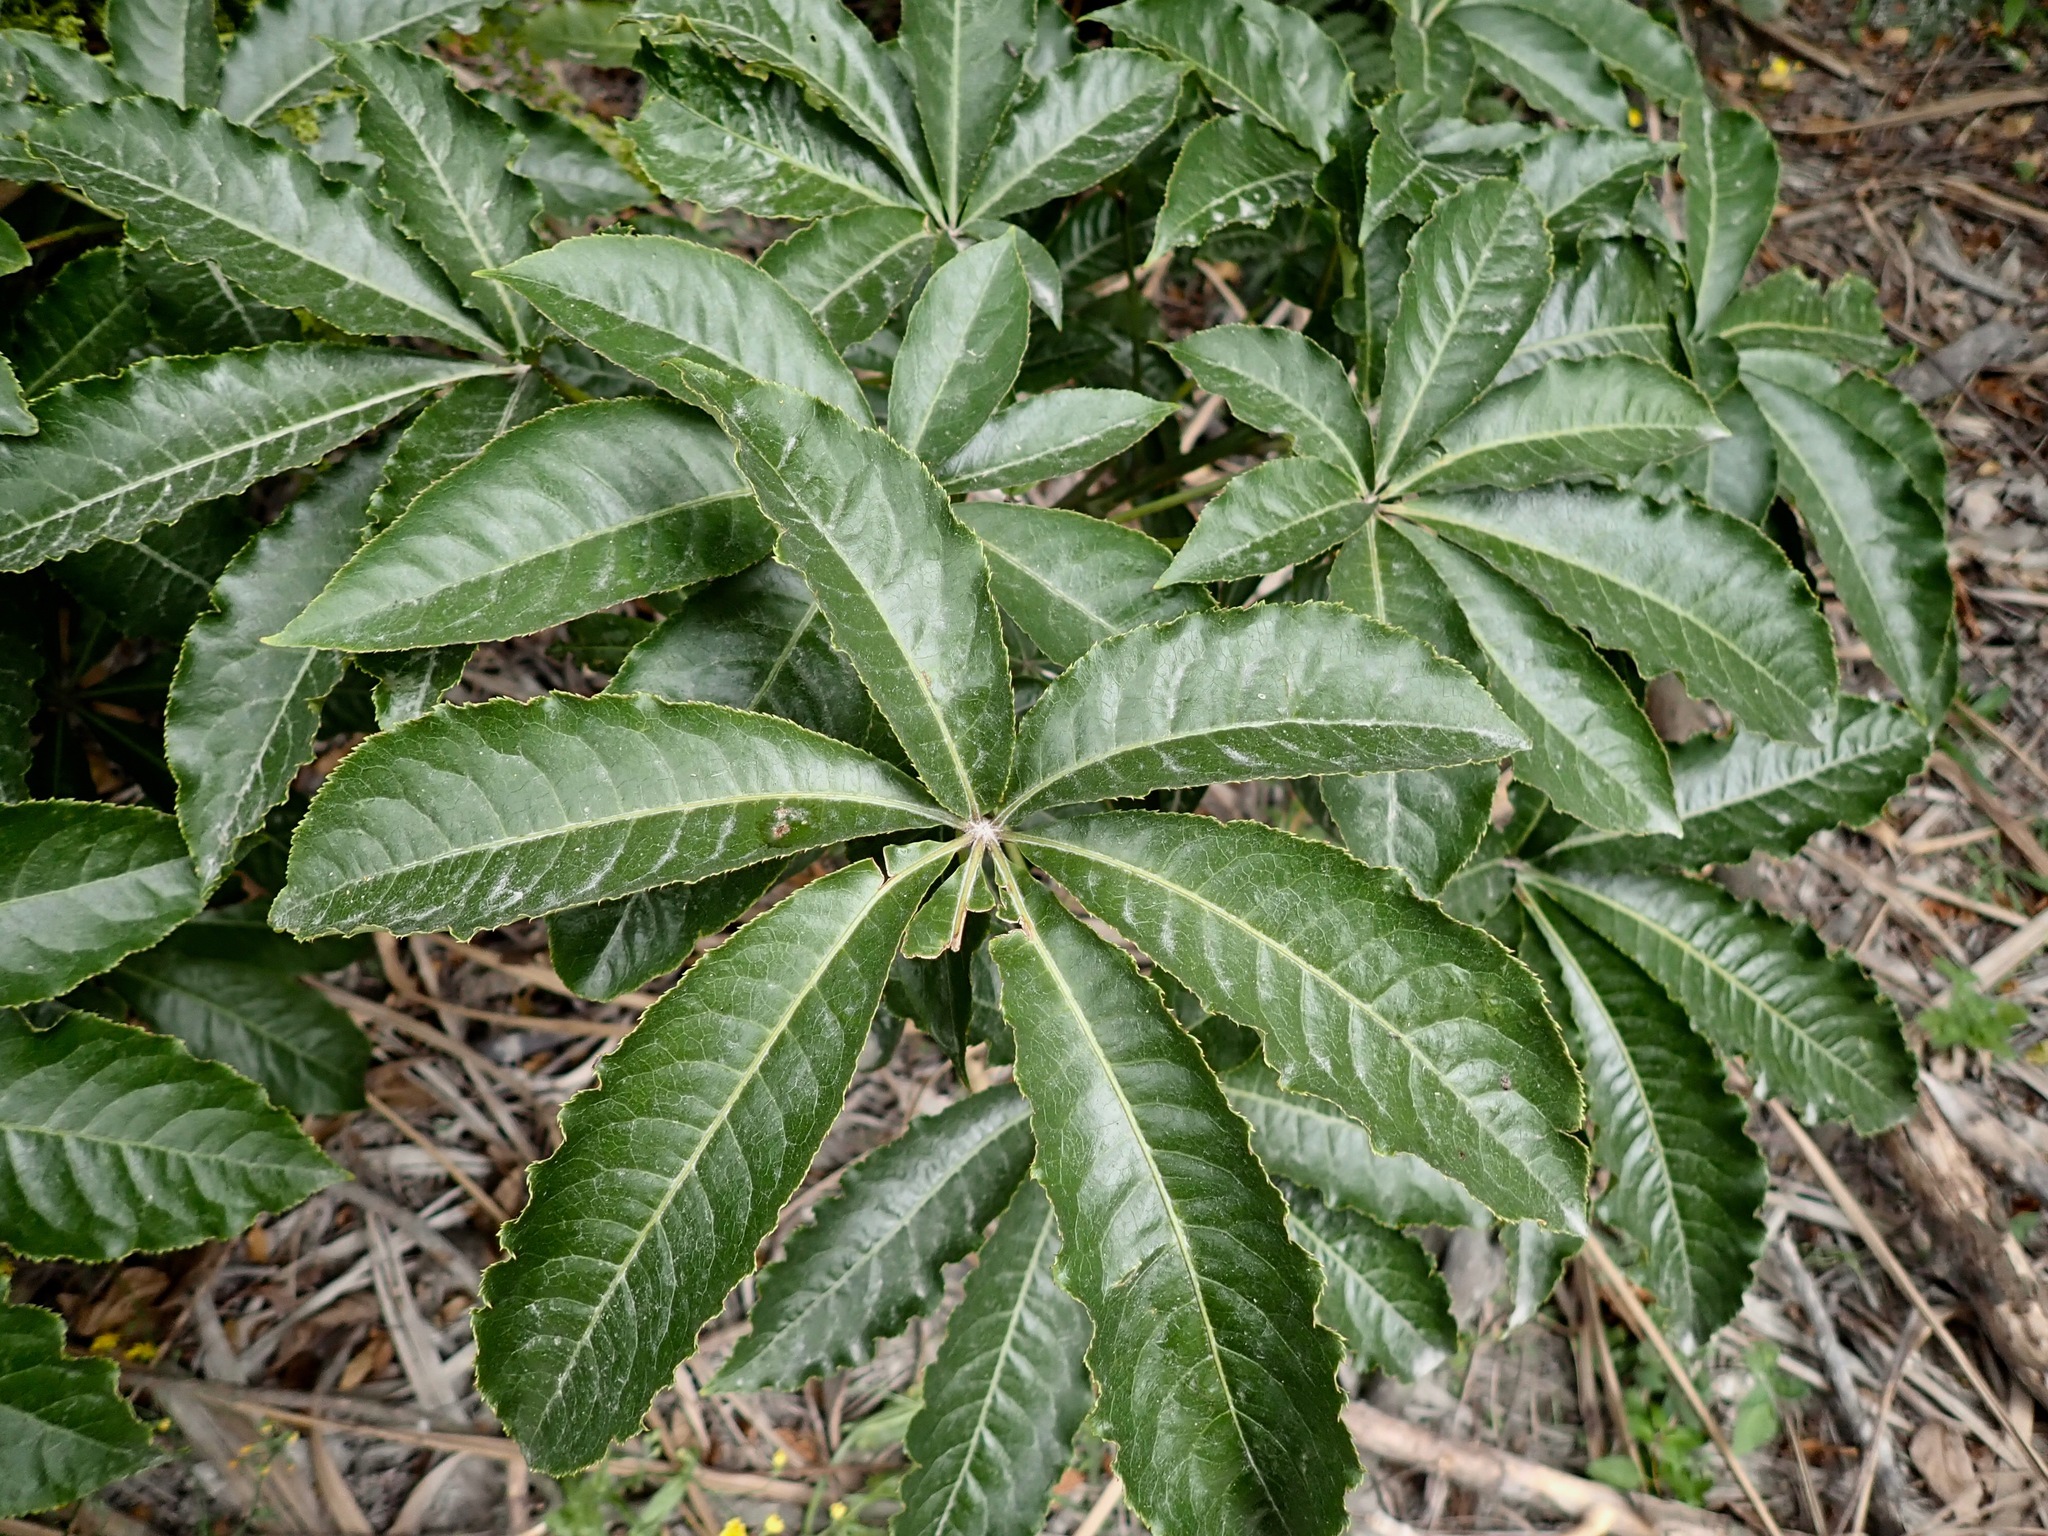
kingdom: Plantae
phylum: Tracheophyta
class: Magnoliopsida
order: Apiales
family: Araliaceae
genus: Schefflera
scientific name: Schefflera digitata
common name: Pate
